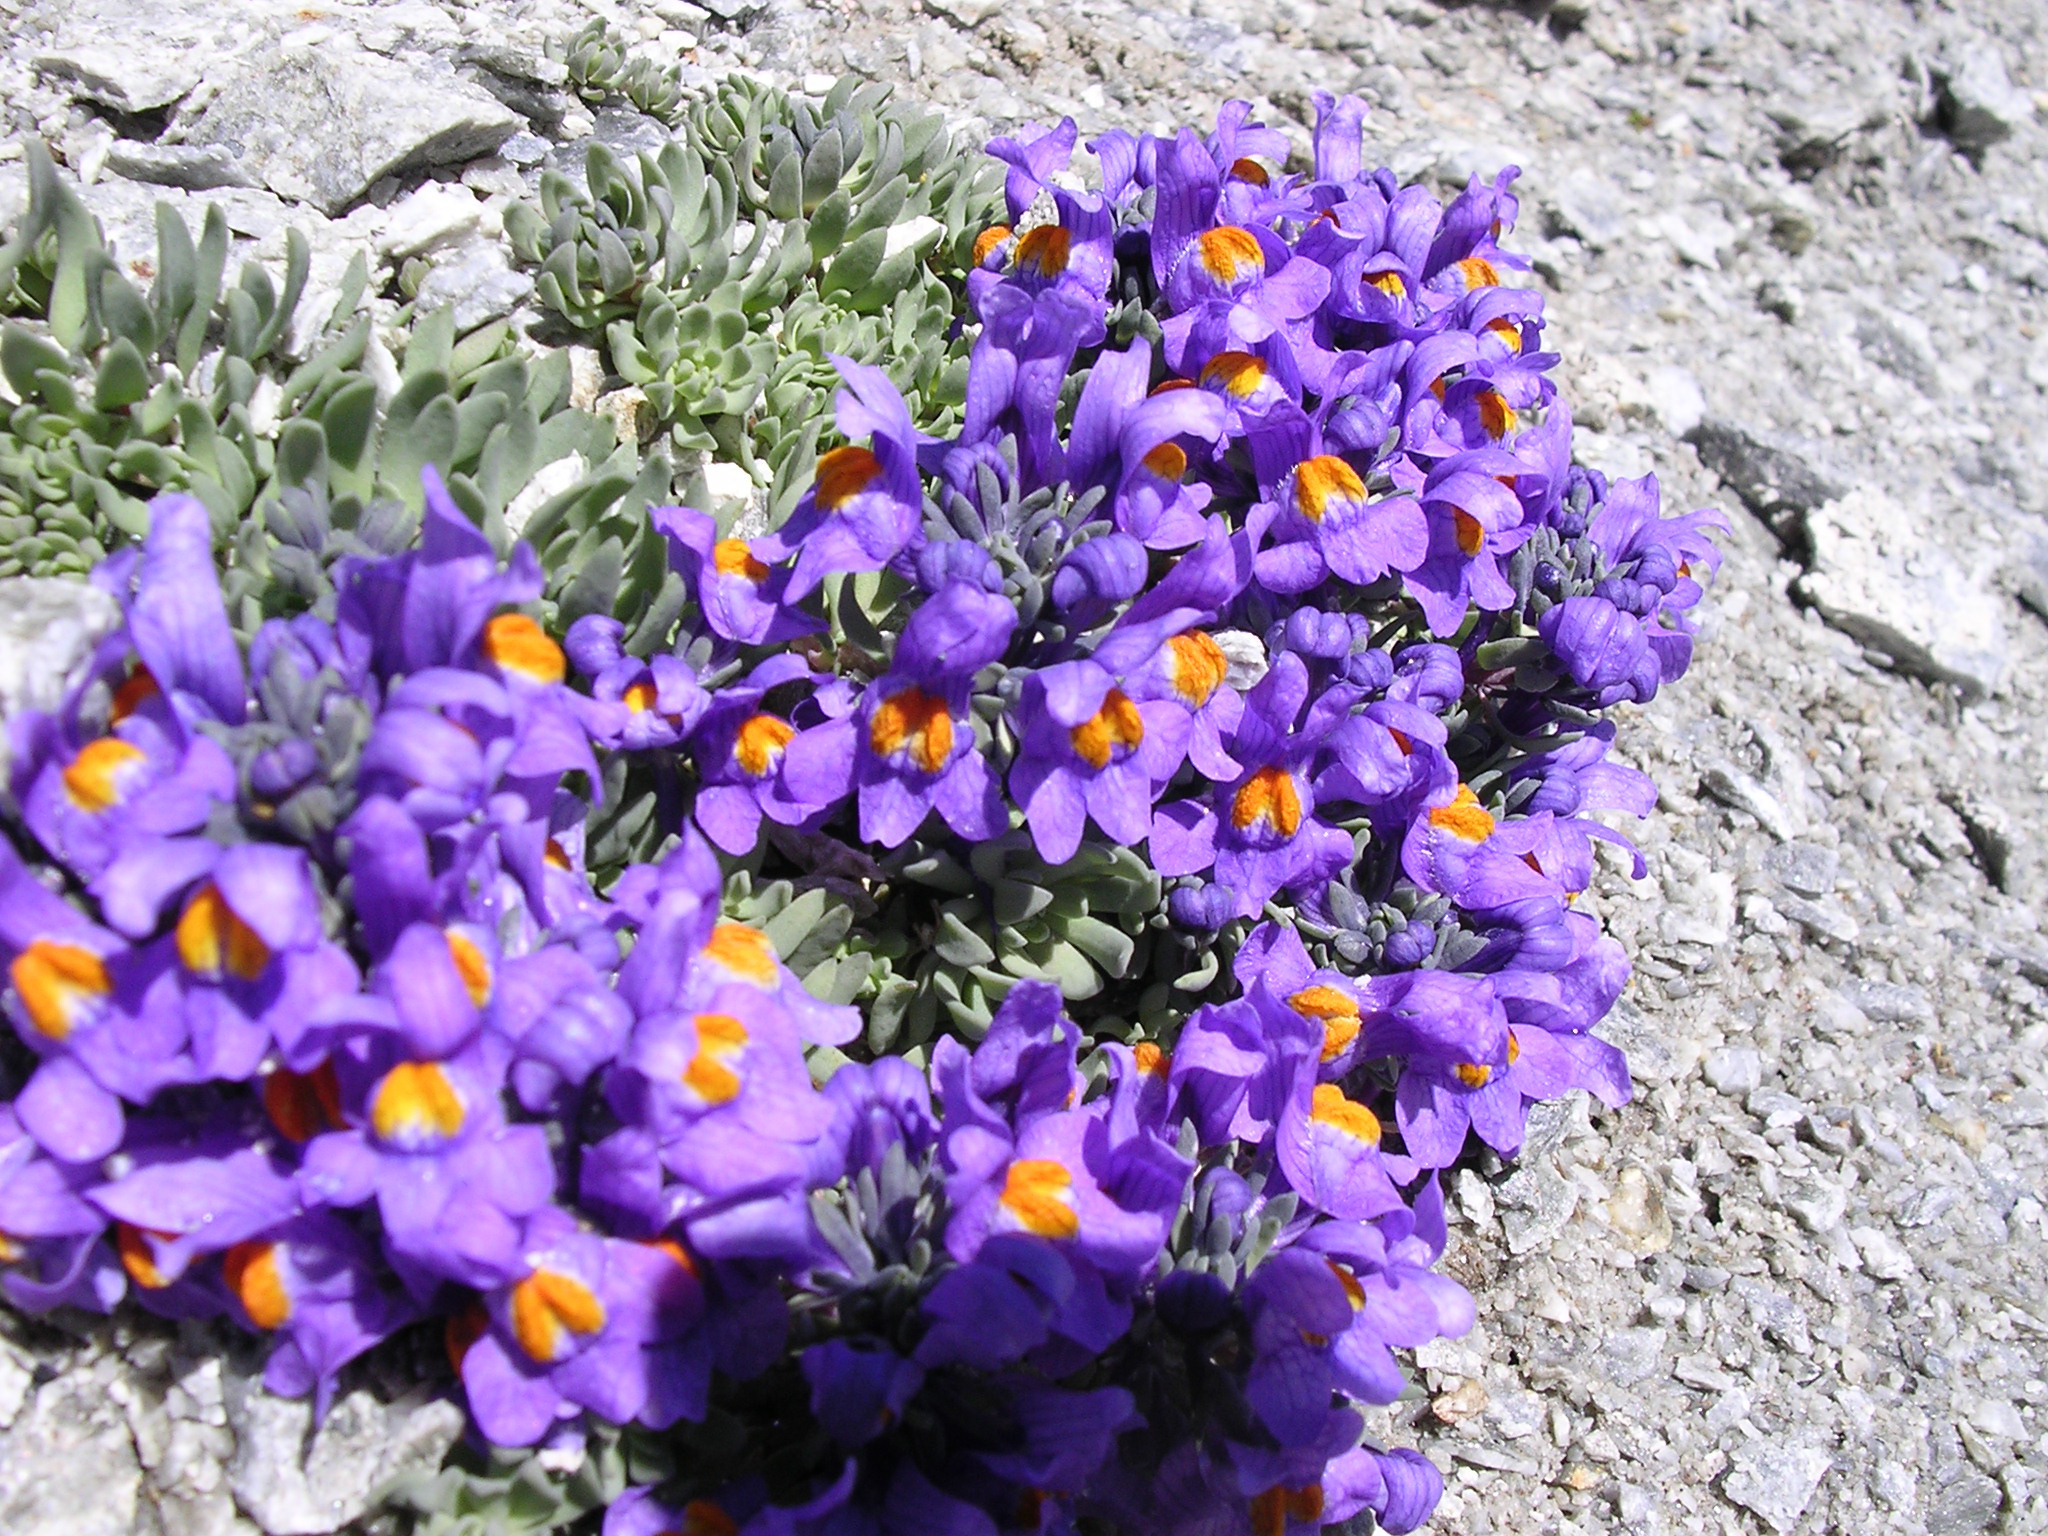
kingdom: Plantae
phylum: Tracheophyta
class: Magnoliopsida
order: Lamiales
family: Plantaginaceae
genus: Linaria
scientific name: Linaria alpina
